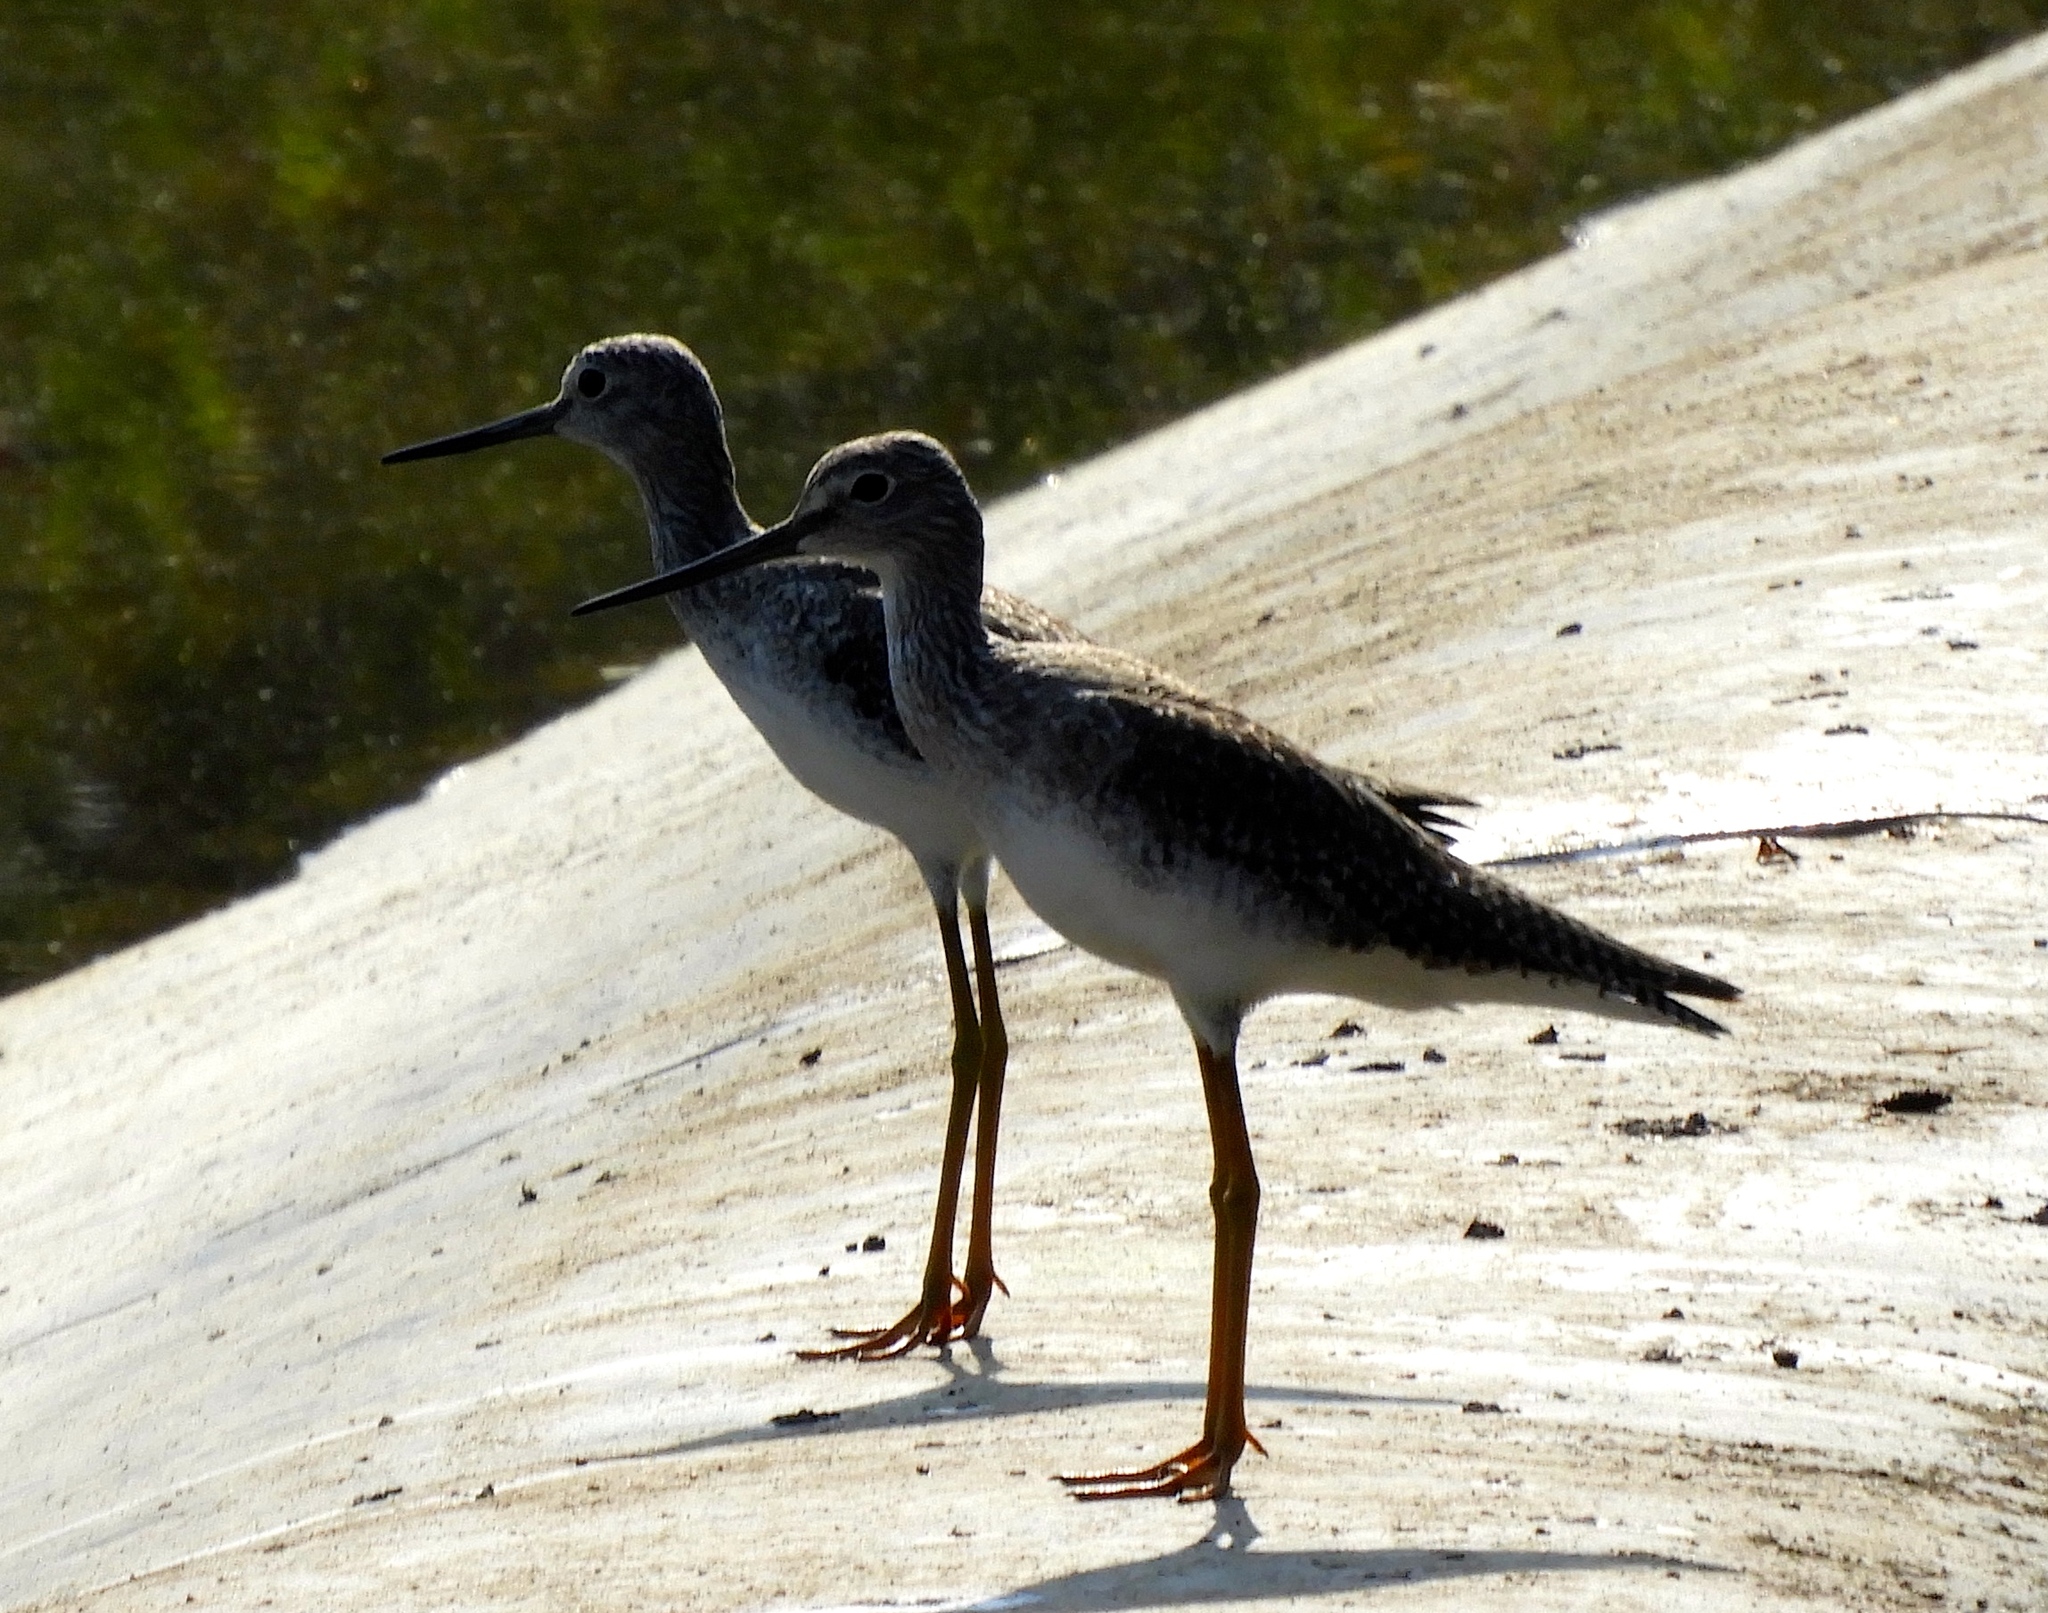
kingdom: Animalia
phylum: Chordata
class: Aves
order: Charadriiformes
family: Scolopacidae
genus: Tringa
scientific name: Tringa melanoleuca
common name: Greater yellowlegs
